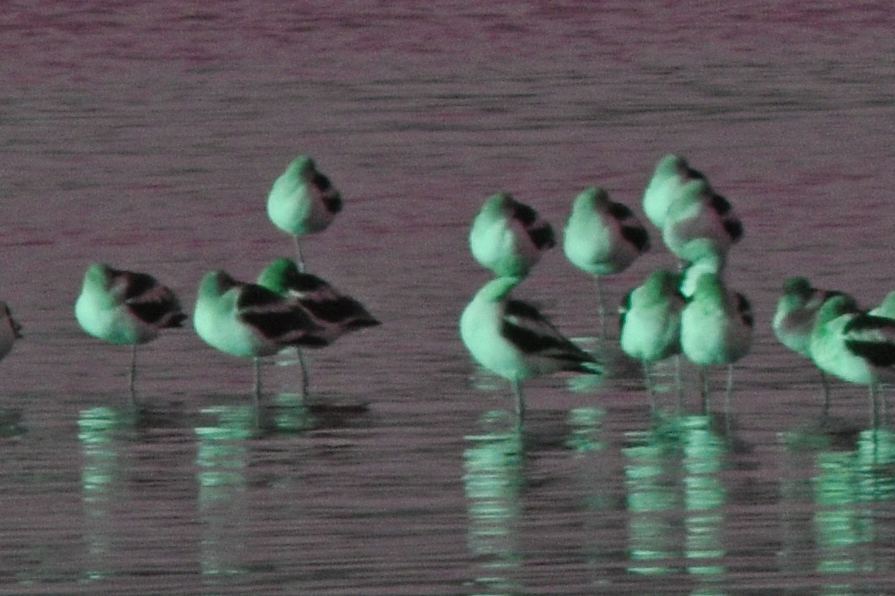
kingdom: Animalia
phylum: Chordata
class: Aves
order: Charadriiformes
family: Recurvirostridae
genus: Recurvirostra
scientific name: Recurvirostra americana
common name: American avocet
